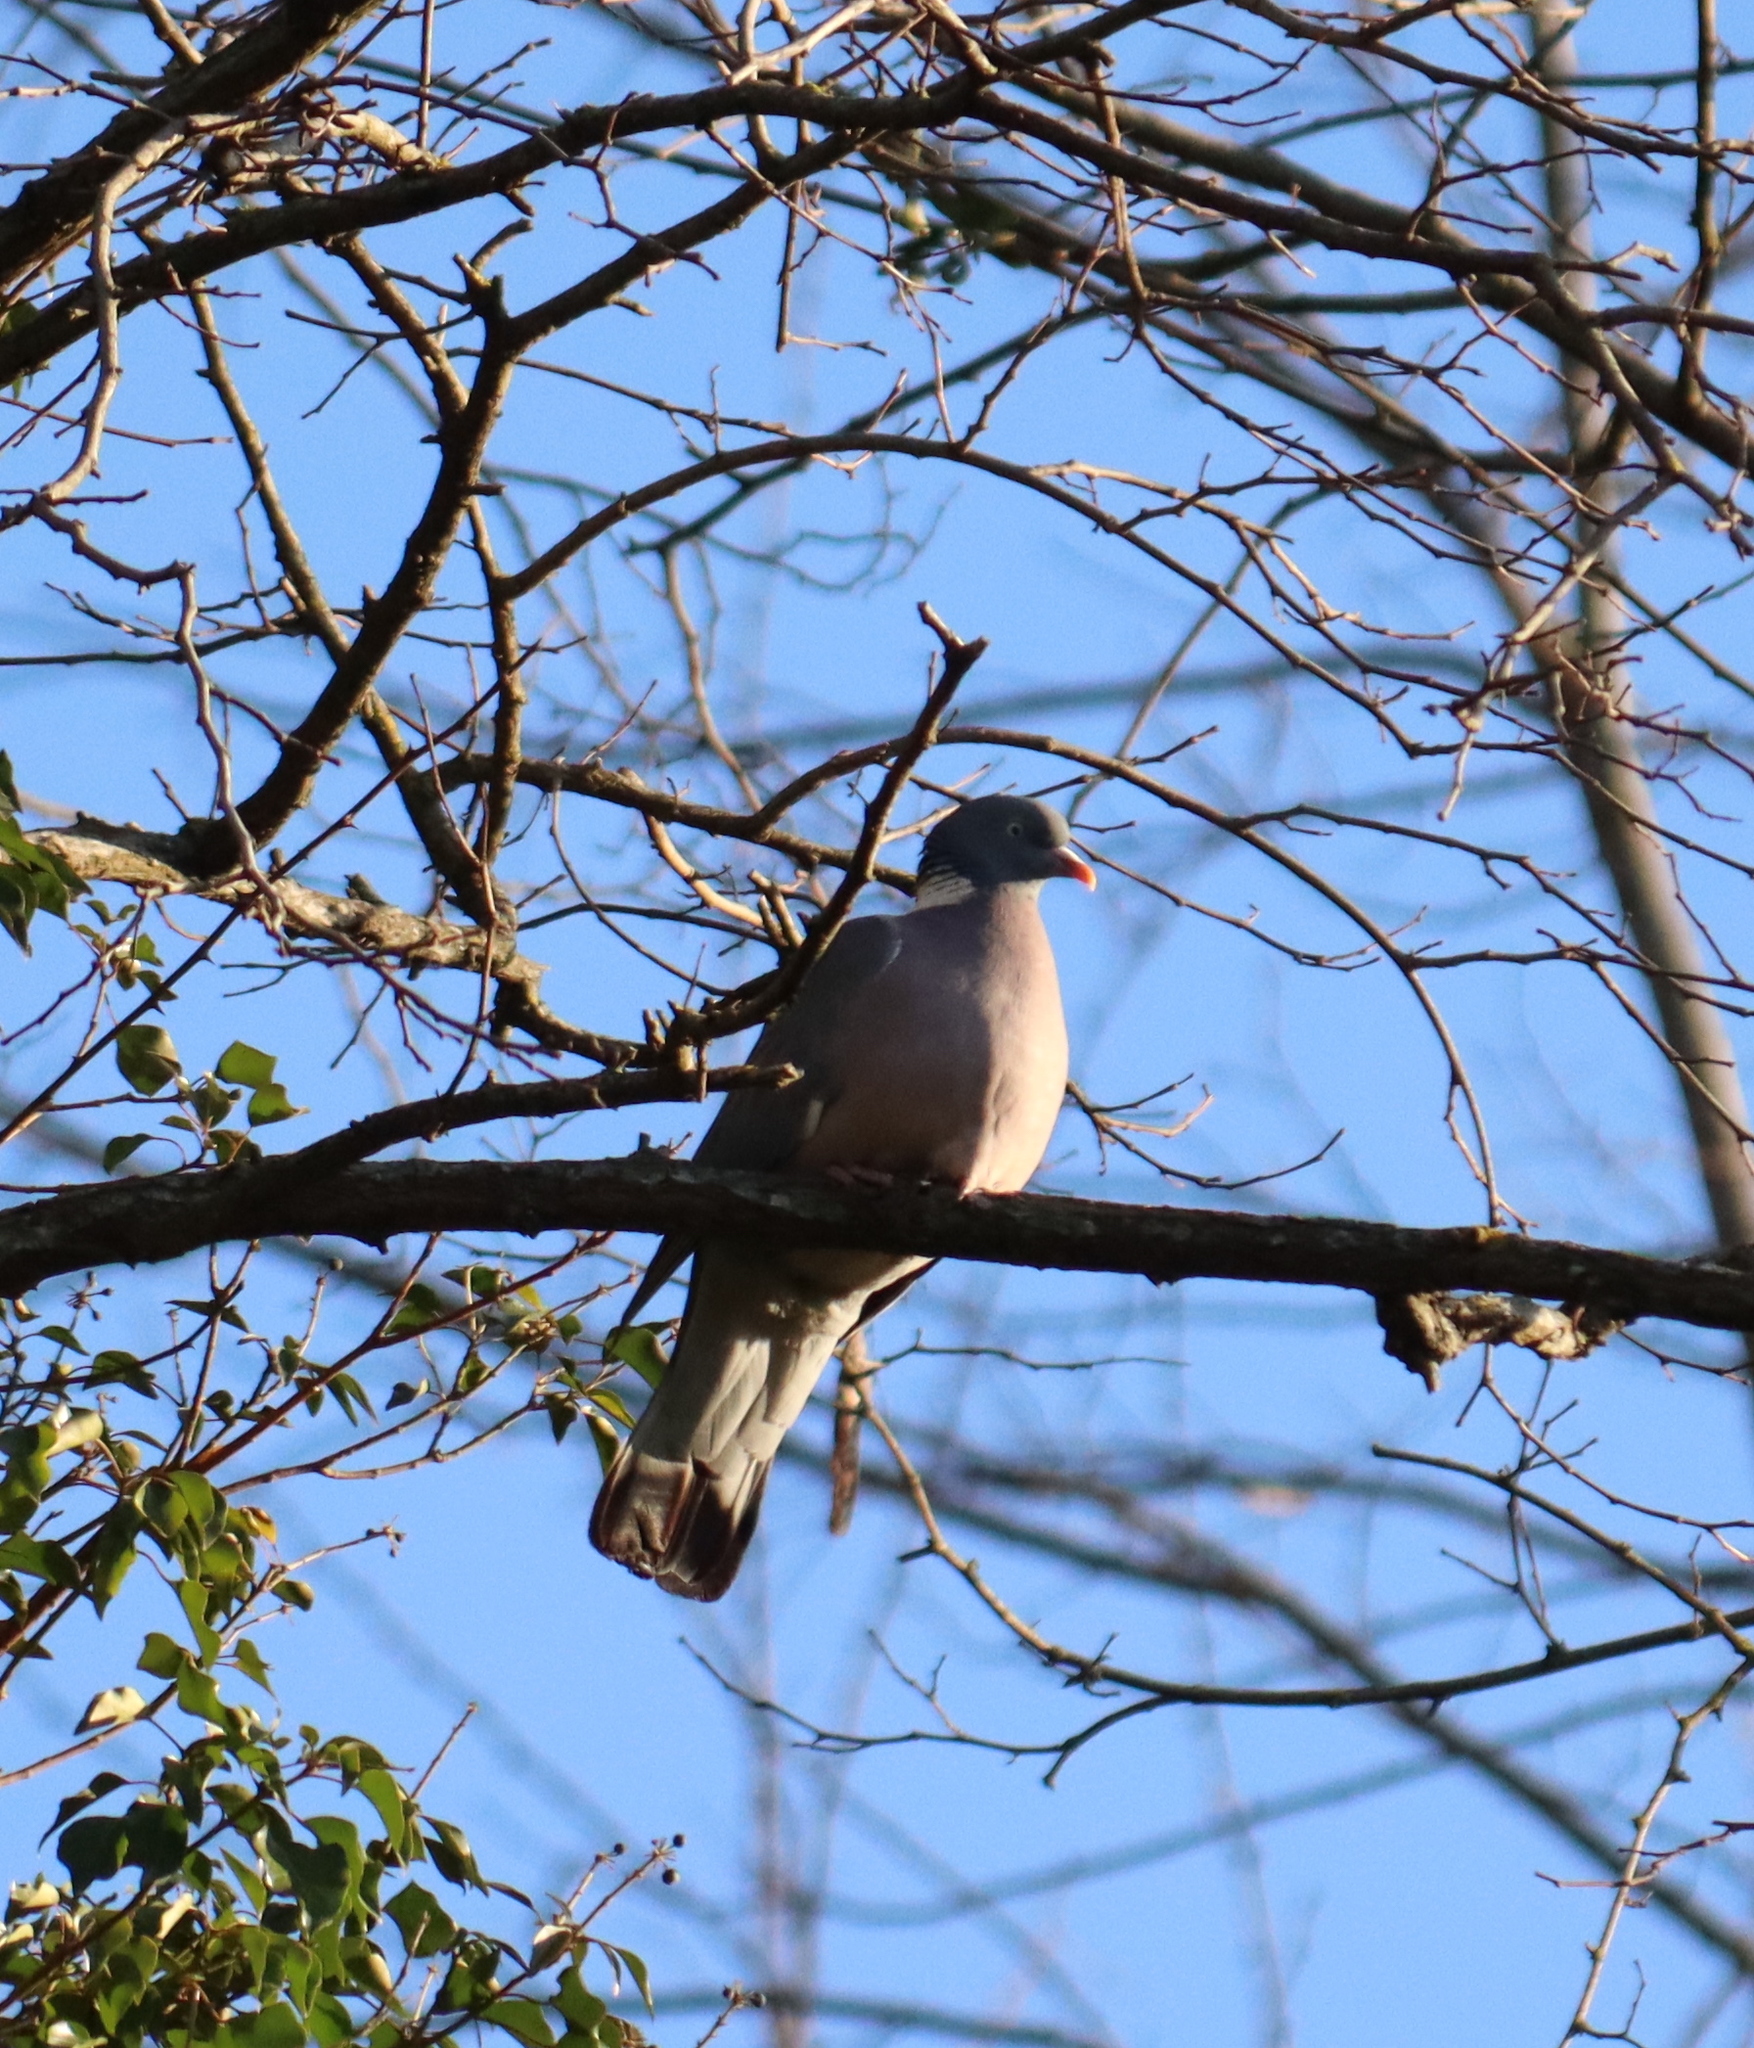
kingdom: Animalia
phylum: Chordata
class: Aves
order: Columbiformes
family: Columbidae
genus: Columba
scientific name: Columba palumbus
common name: Common wood pigeon
